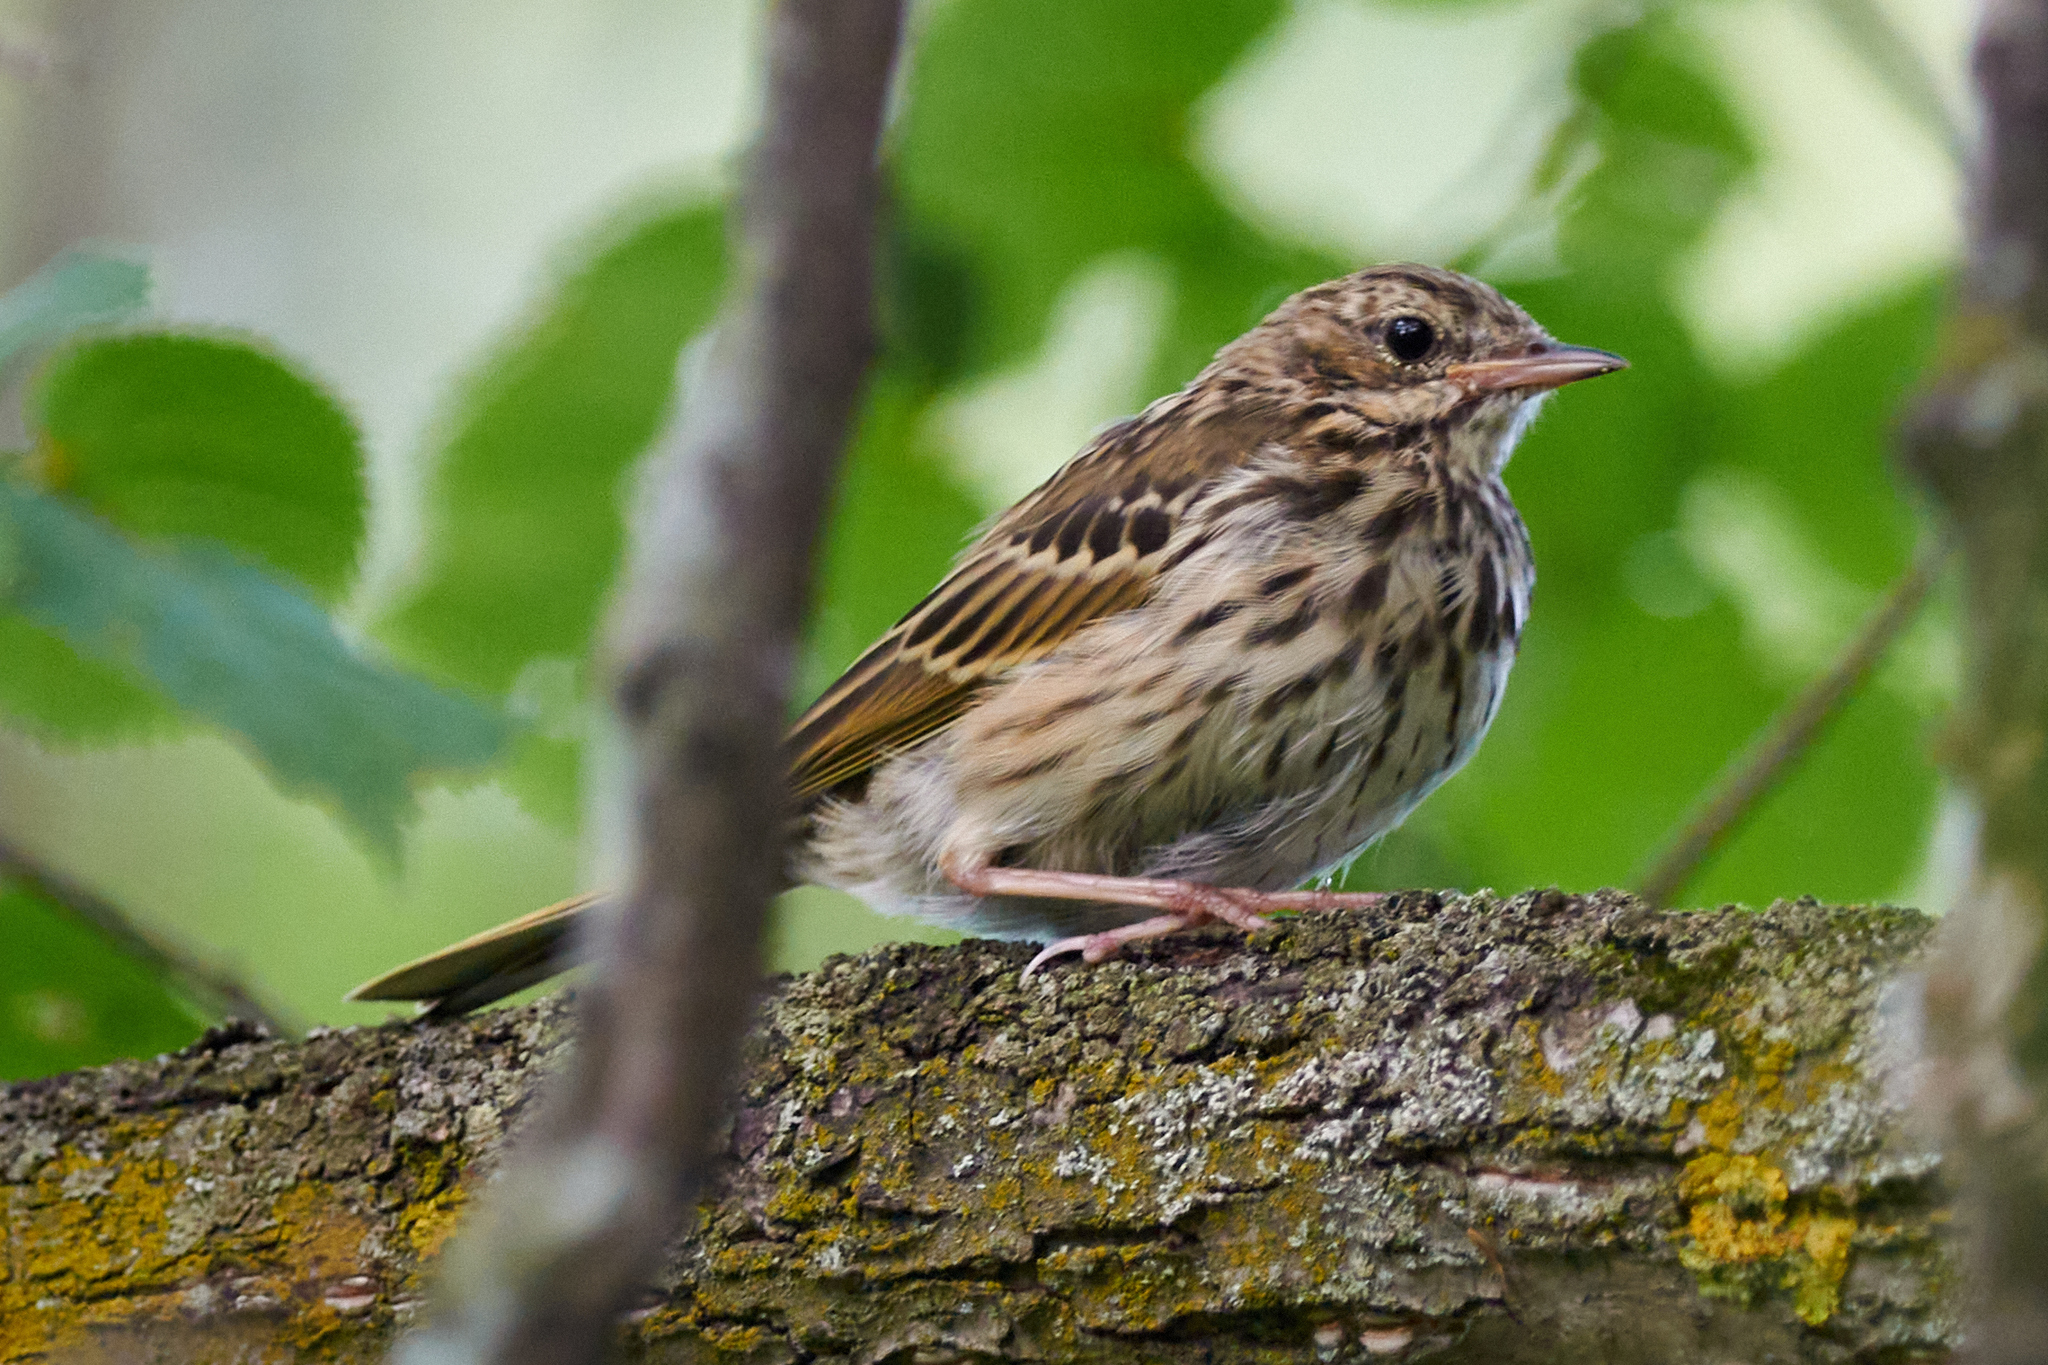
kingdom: Animalia
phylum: Chordata
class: Aves
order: Passeriformes
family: Motacillidae
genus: Anthus
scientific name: Anthus trivialis
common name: Tree pipit
